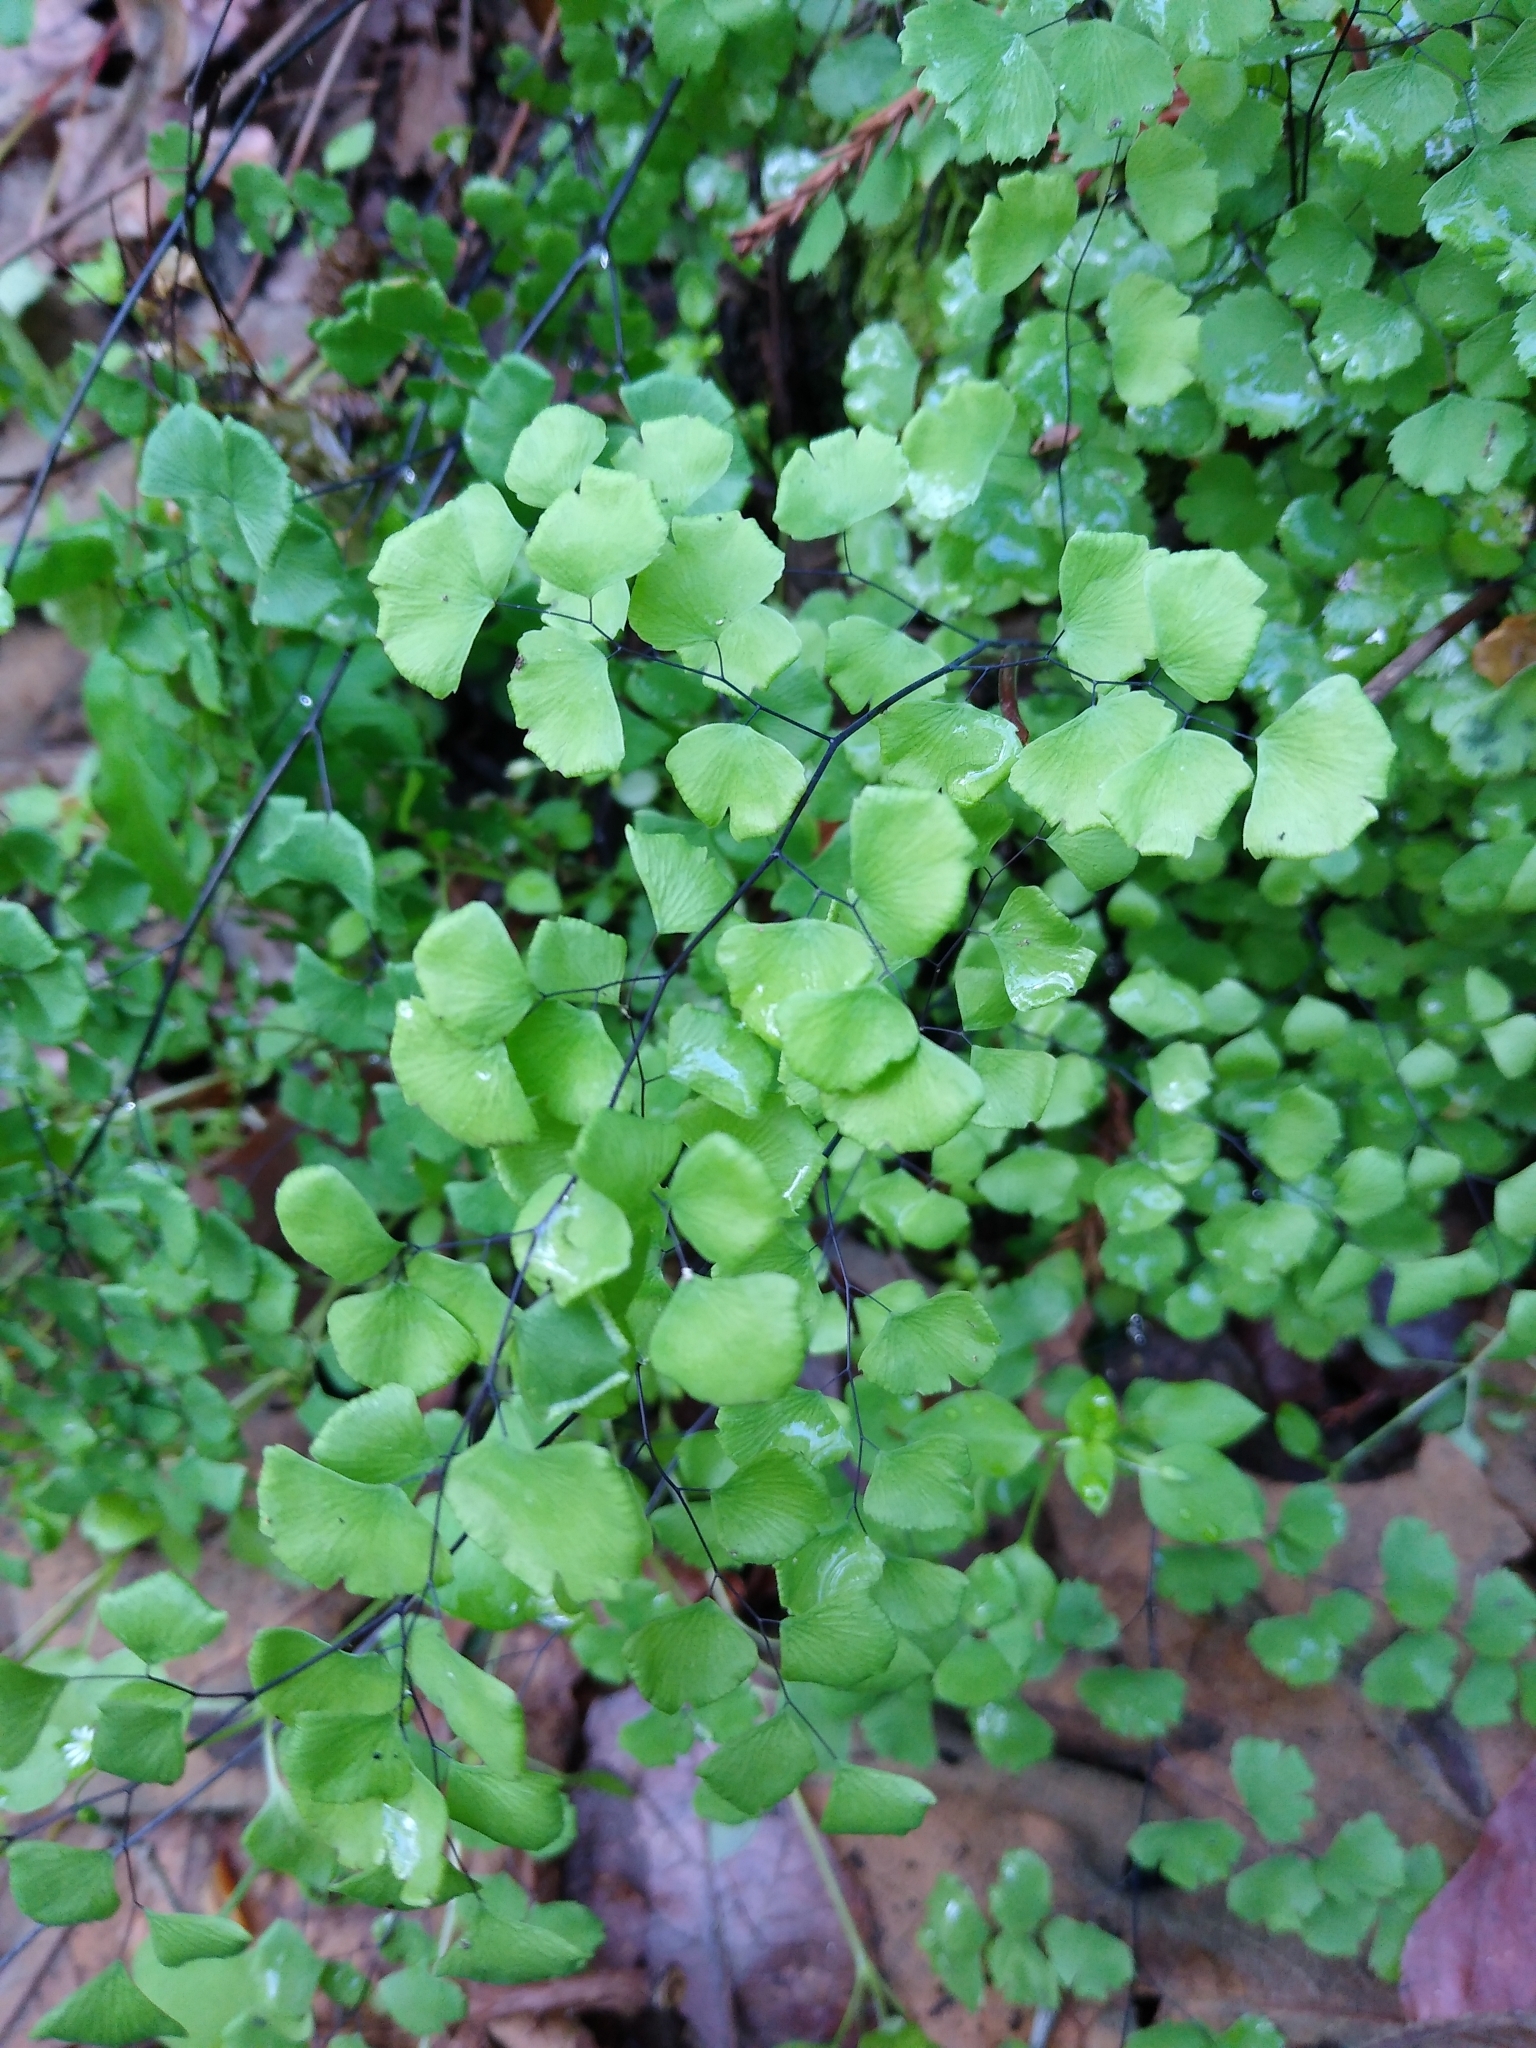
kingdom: Plantae
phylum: Tracheophyta
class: Polypodiopsida
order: Polypodiales
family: Pteridaceae
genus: Adiantum
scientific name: Adiantum jordanii
